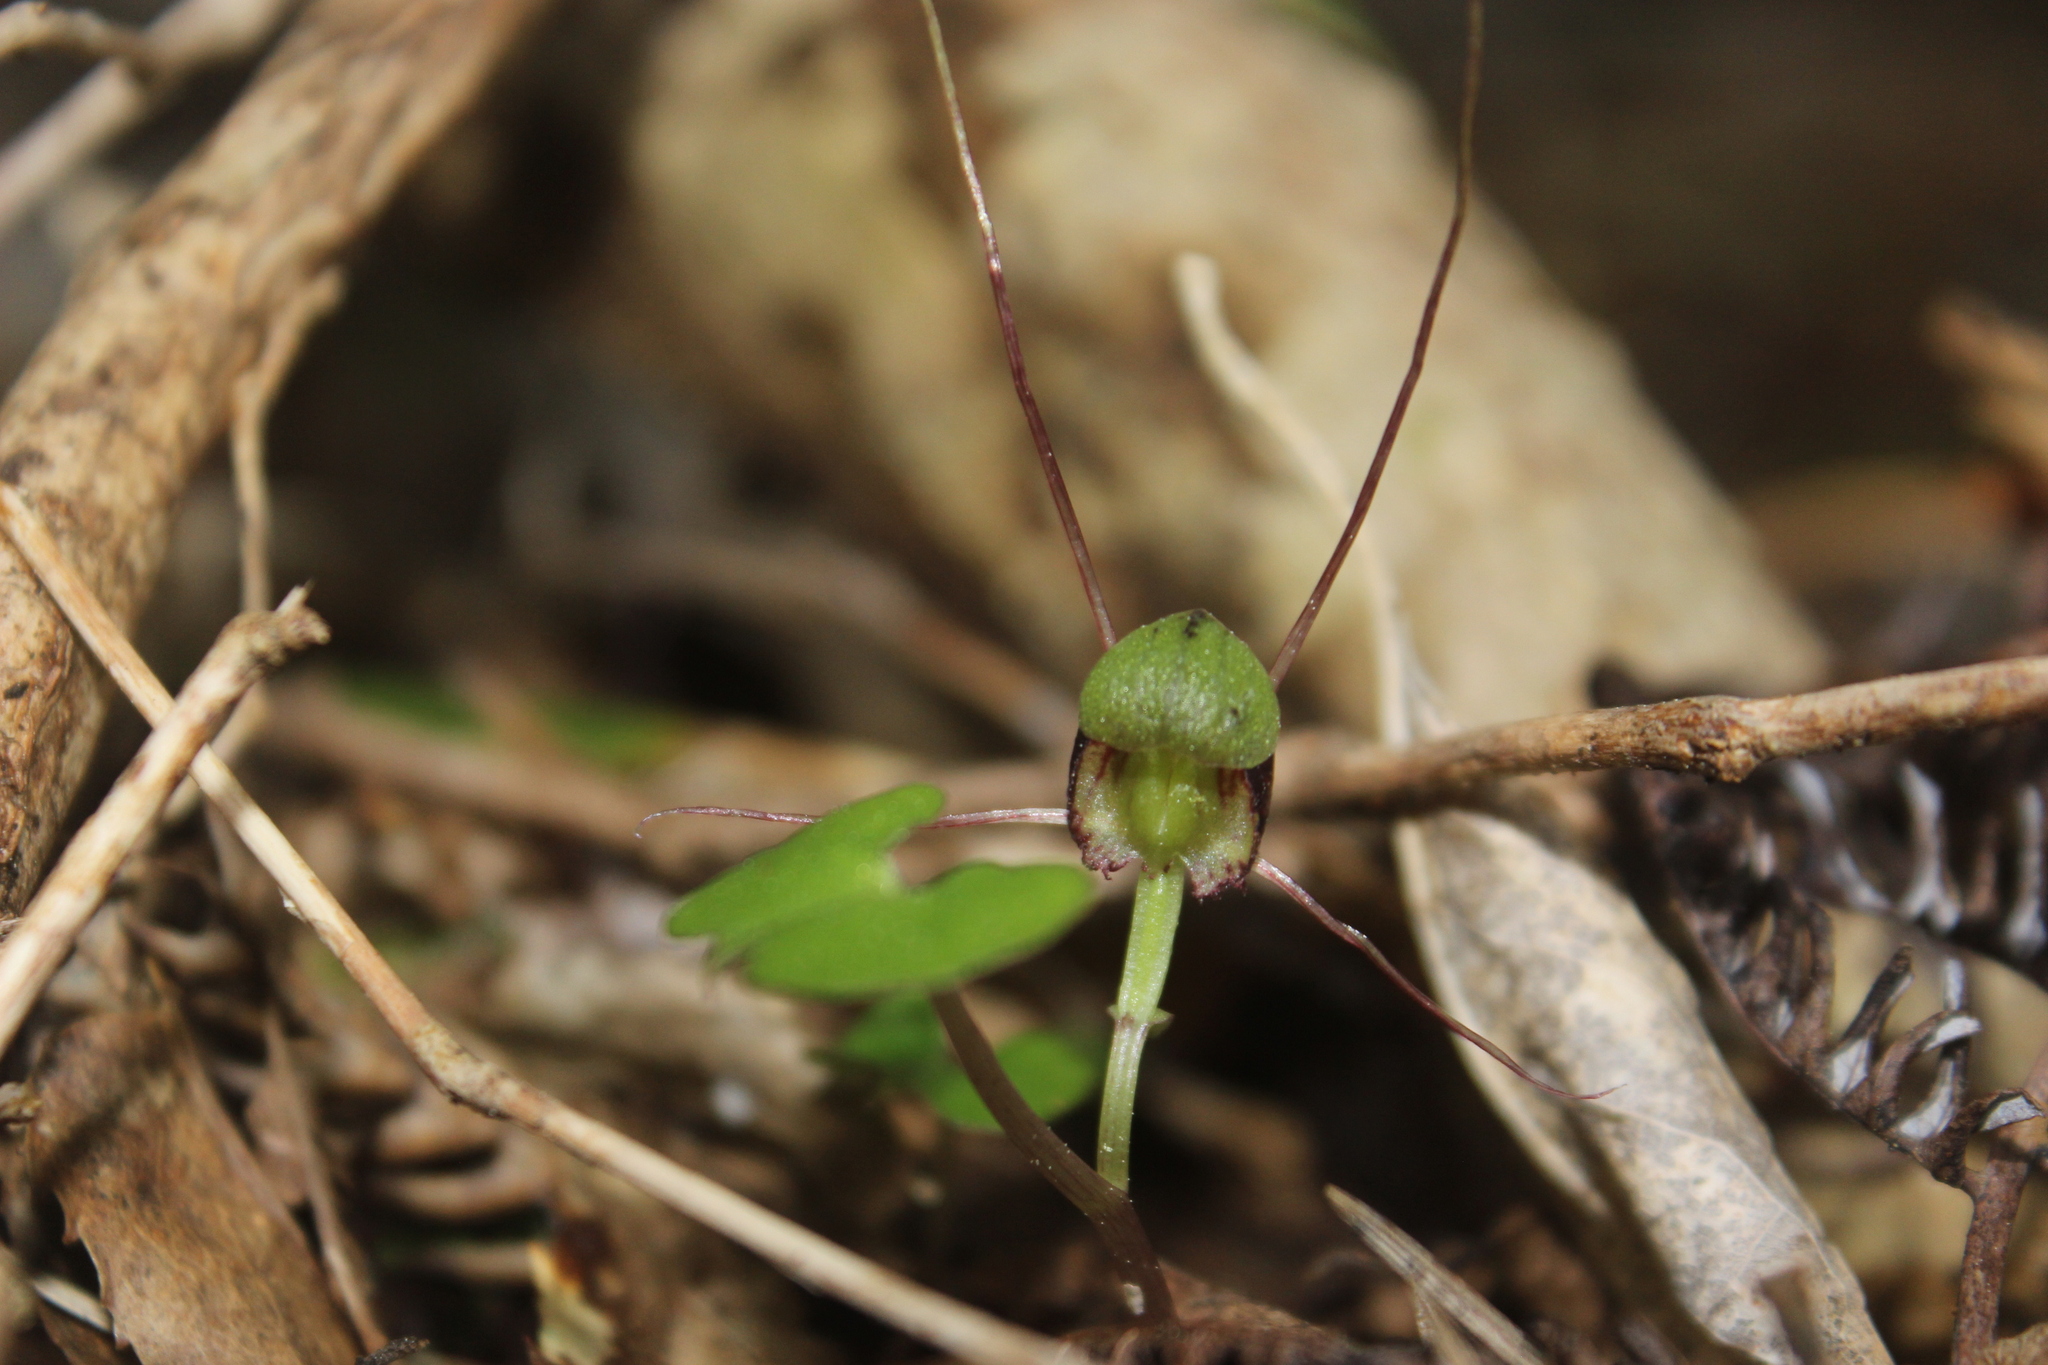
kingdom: Plantae
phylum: Tracheophyta
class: Liliopsida
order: Asparagales
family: Orchidaceae
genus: Corybas
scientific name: Corybas vitreus
